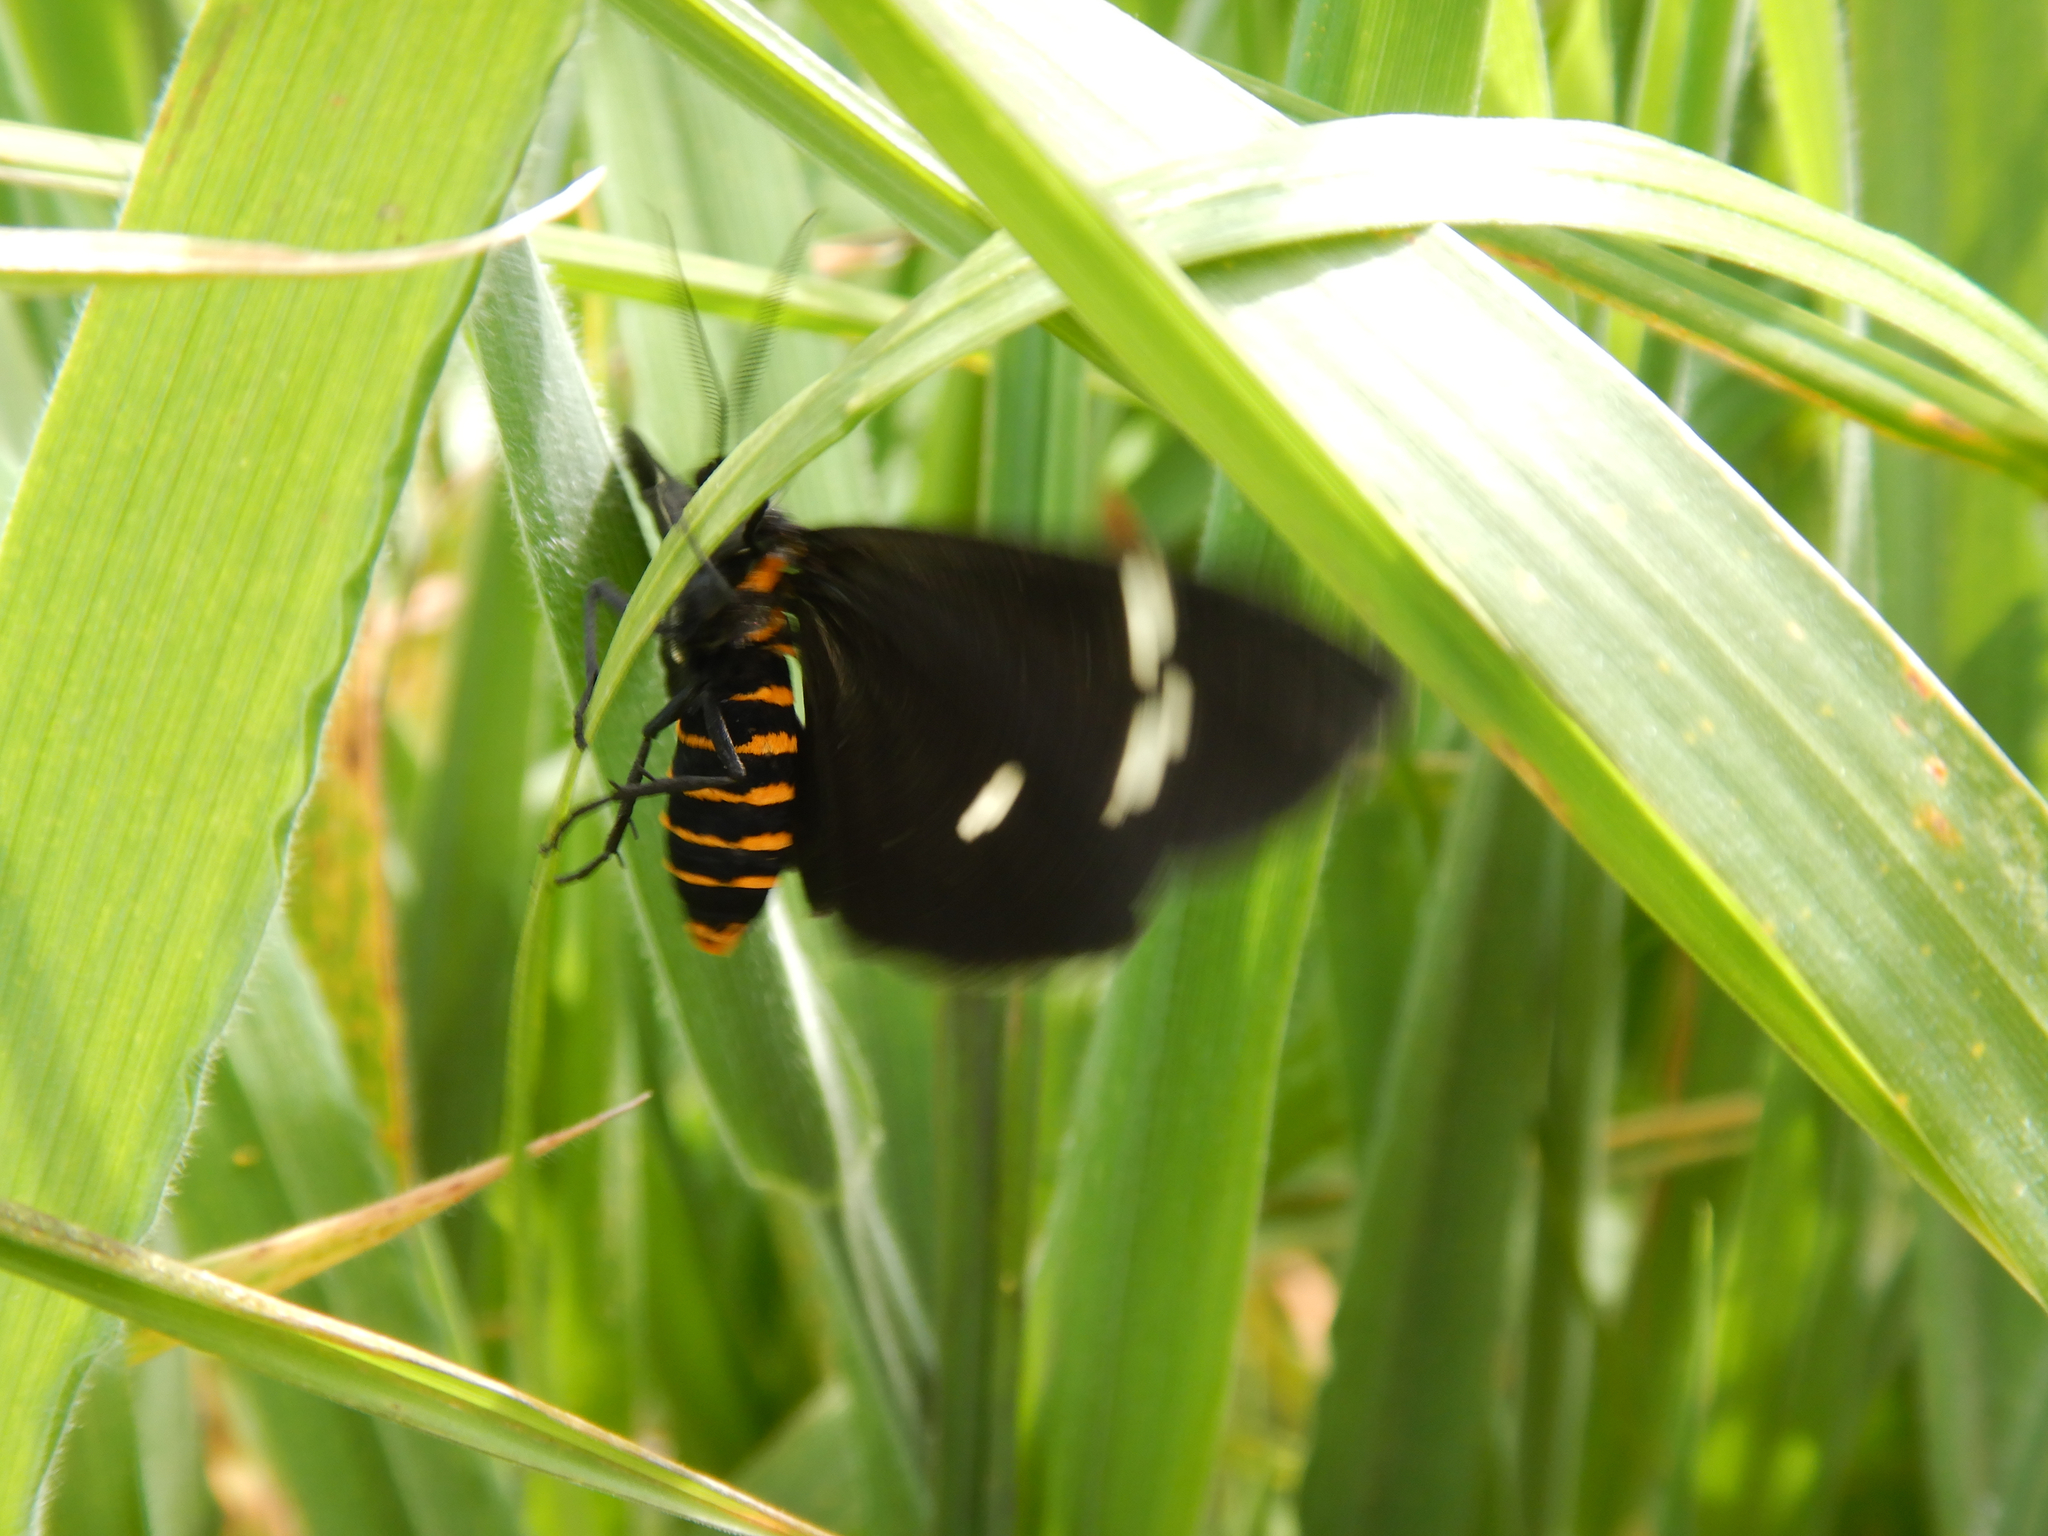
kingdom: Animalia
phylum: Arthropoda
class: Insecta
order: Lepidoptera
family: Erebidae
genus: Nyctemera
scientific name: Nyctemera annulatum
